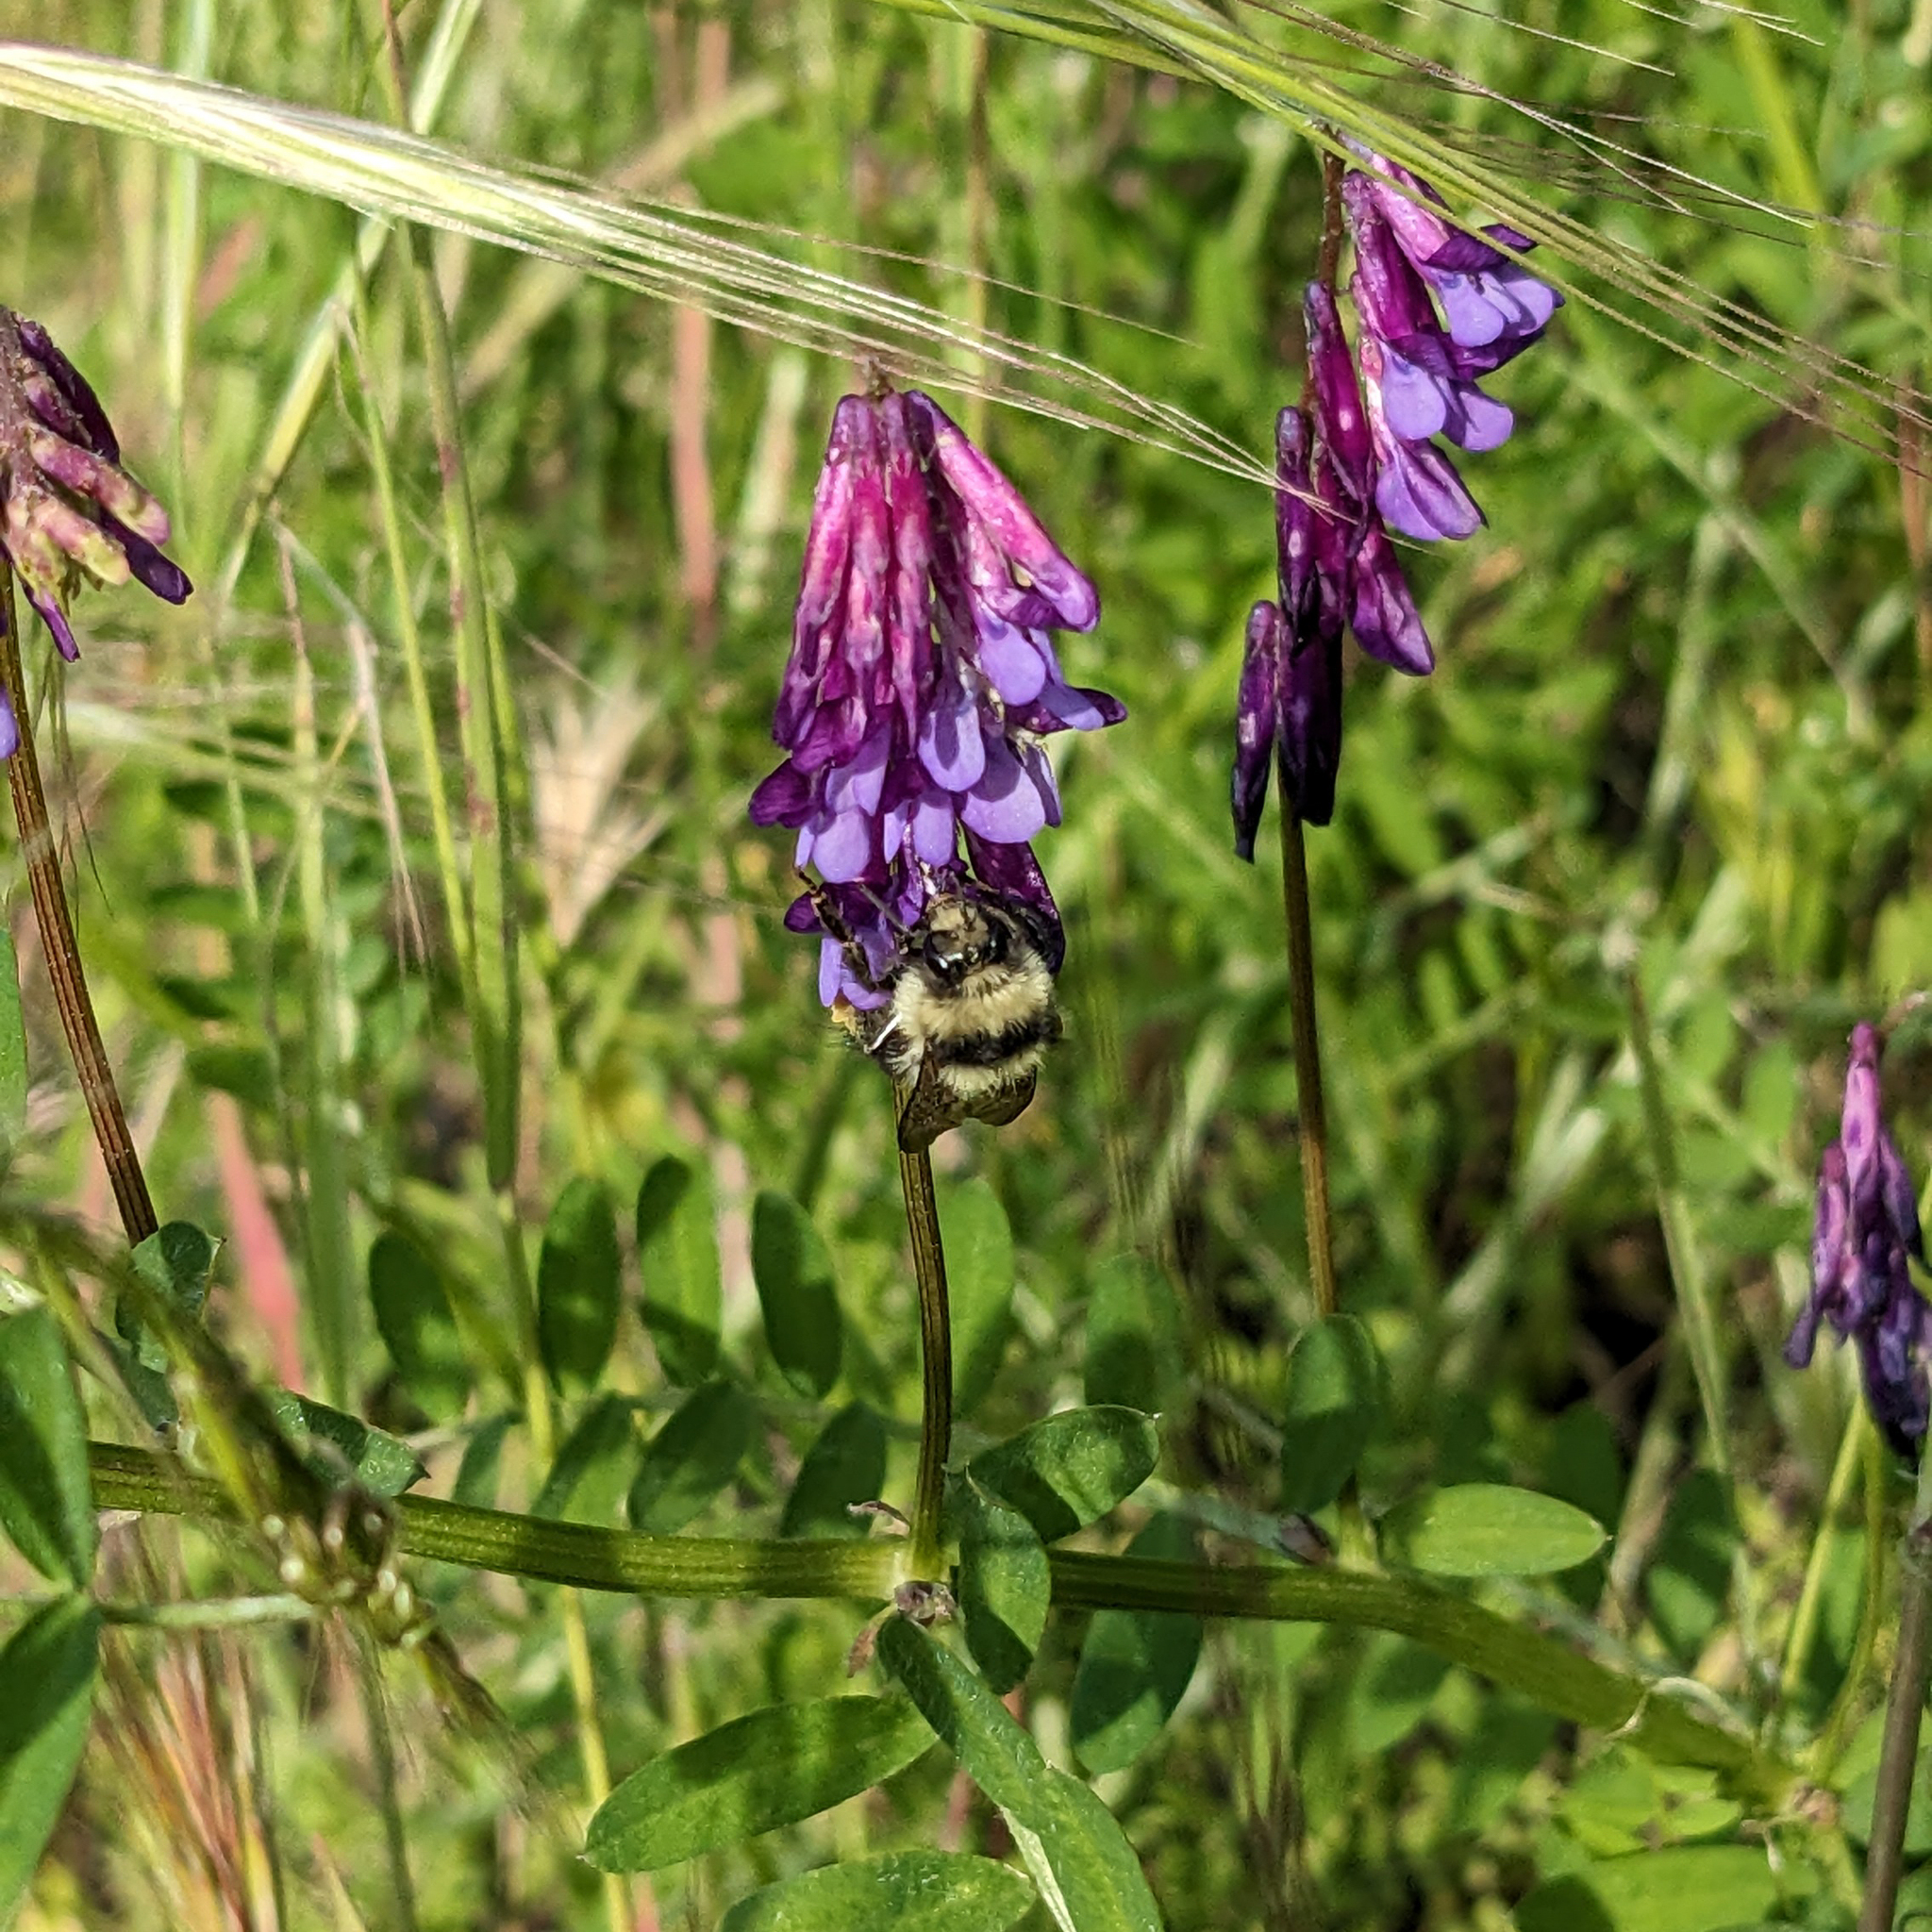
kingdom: Animalia
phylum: Arthropoda
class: Insecta
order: Hymenoptera
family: Apidae
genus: Bombus
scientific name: Bombus melanopygus
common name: Black tail bumble bee
